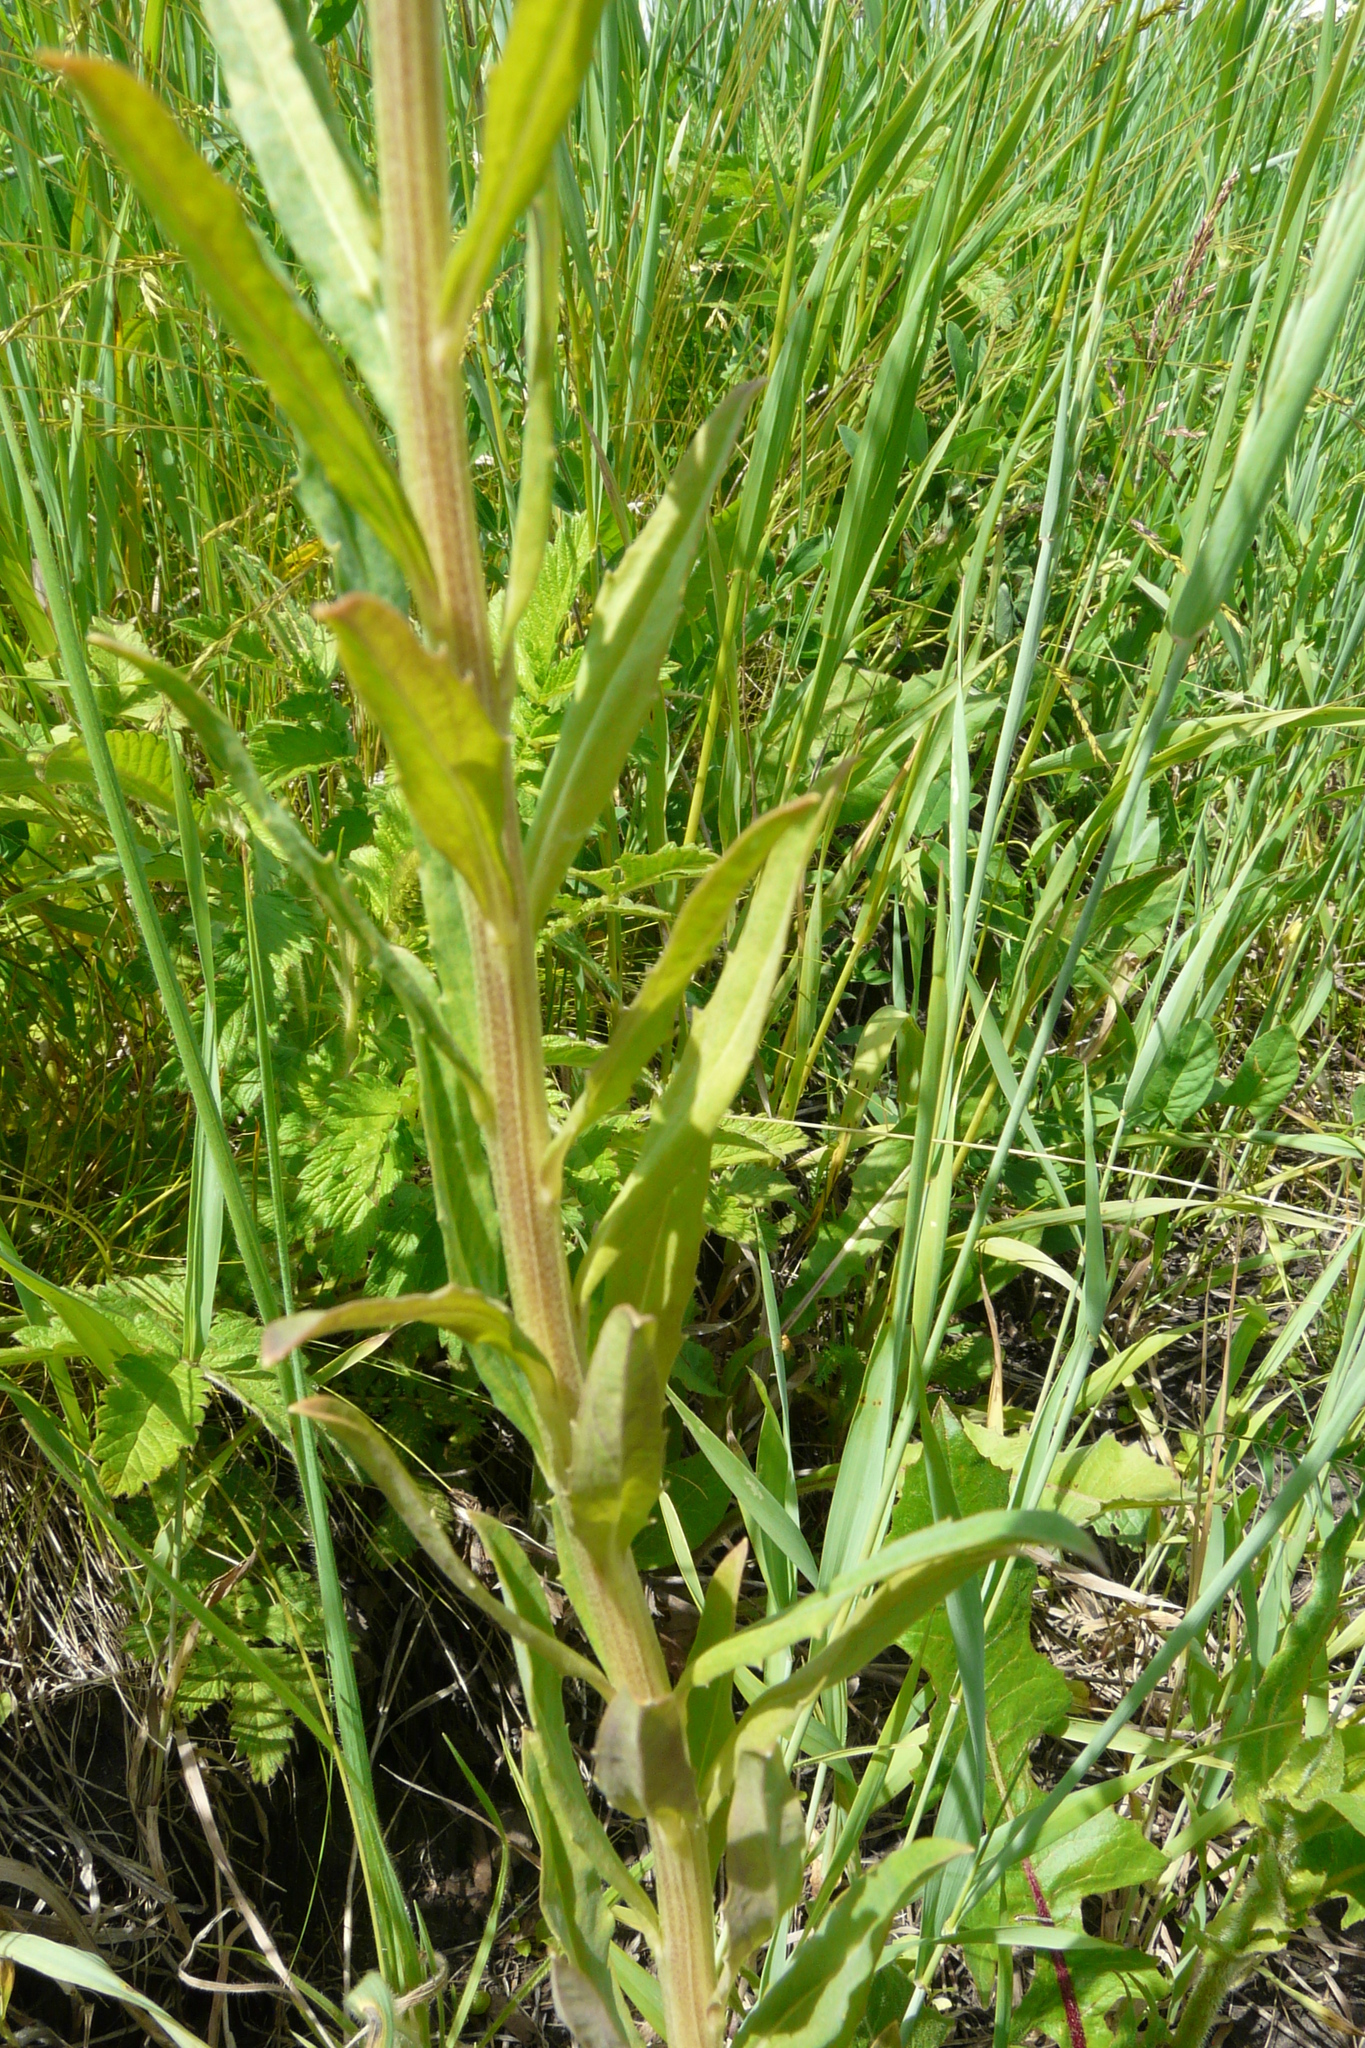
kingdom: Plantae
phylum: Tracheophyta
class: Magnoliopsida
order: Brassicales
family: Brassicaceae
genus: Erysimum
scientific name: Erysimum hieraciifolium
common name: European wallflower
